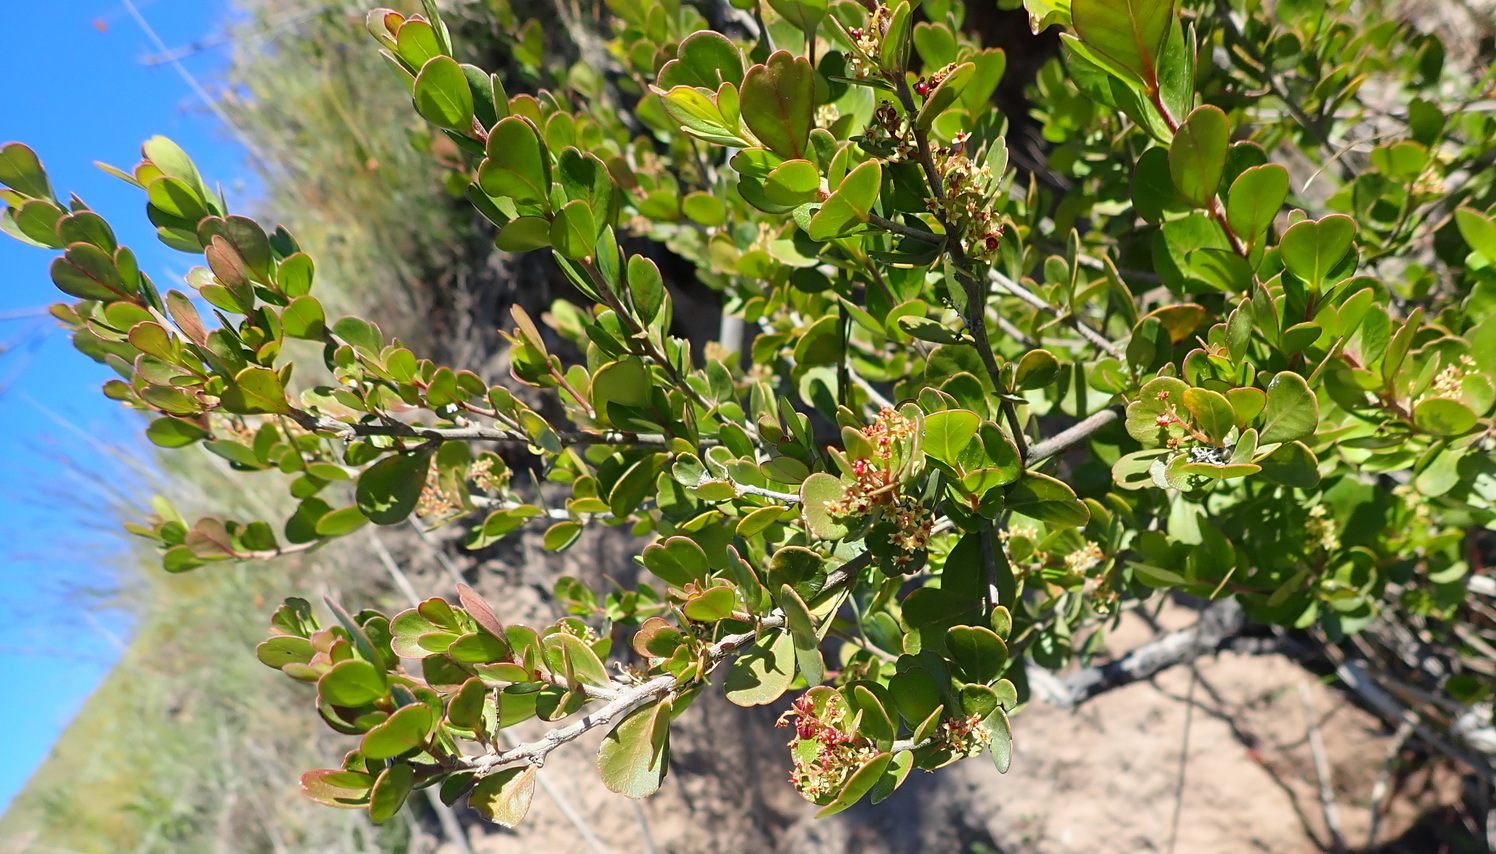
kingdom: Plantae
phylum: Tracheophyta
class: Magnoliopsida
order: Sapindales
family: Anacardiaceae
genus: Searsia
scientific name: Searsia lucida
